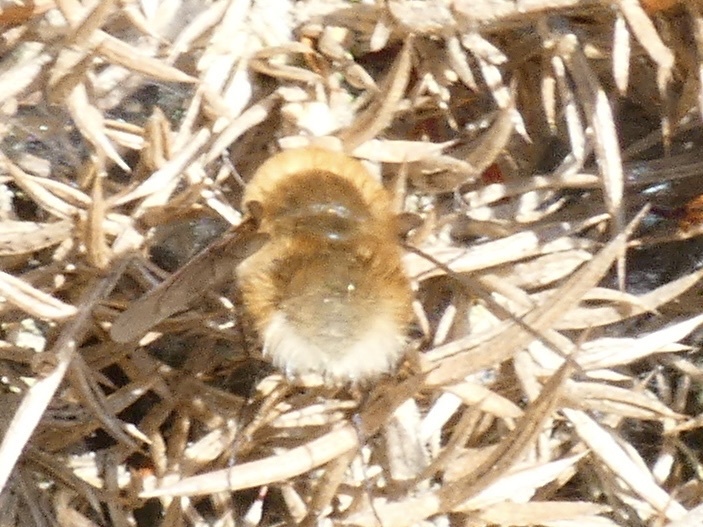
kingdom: Animalia
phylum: Arthropoda
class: Insecta
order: Diptera
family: Bombyliidae
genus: Bombylius
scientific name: Bombylius minor
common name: Heath bee-fly
